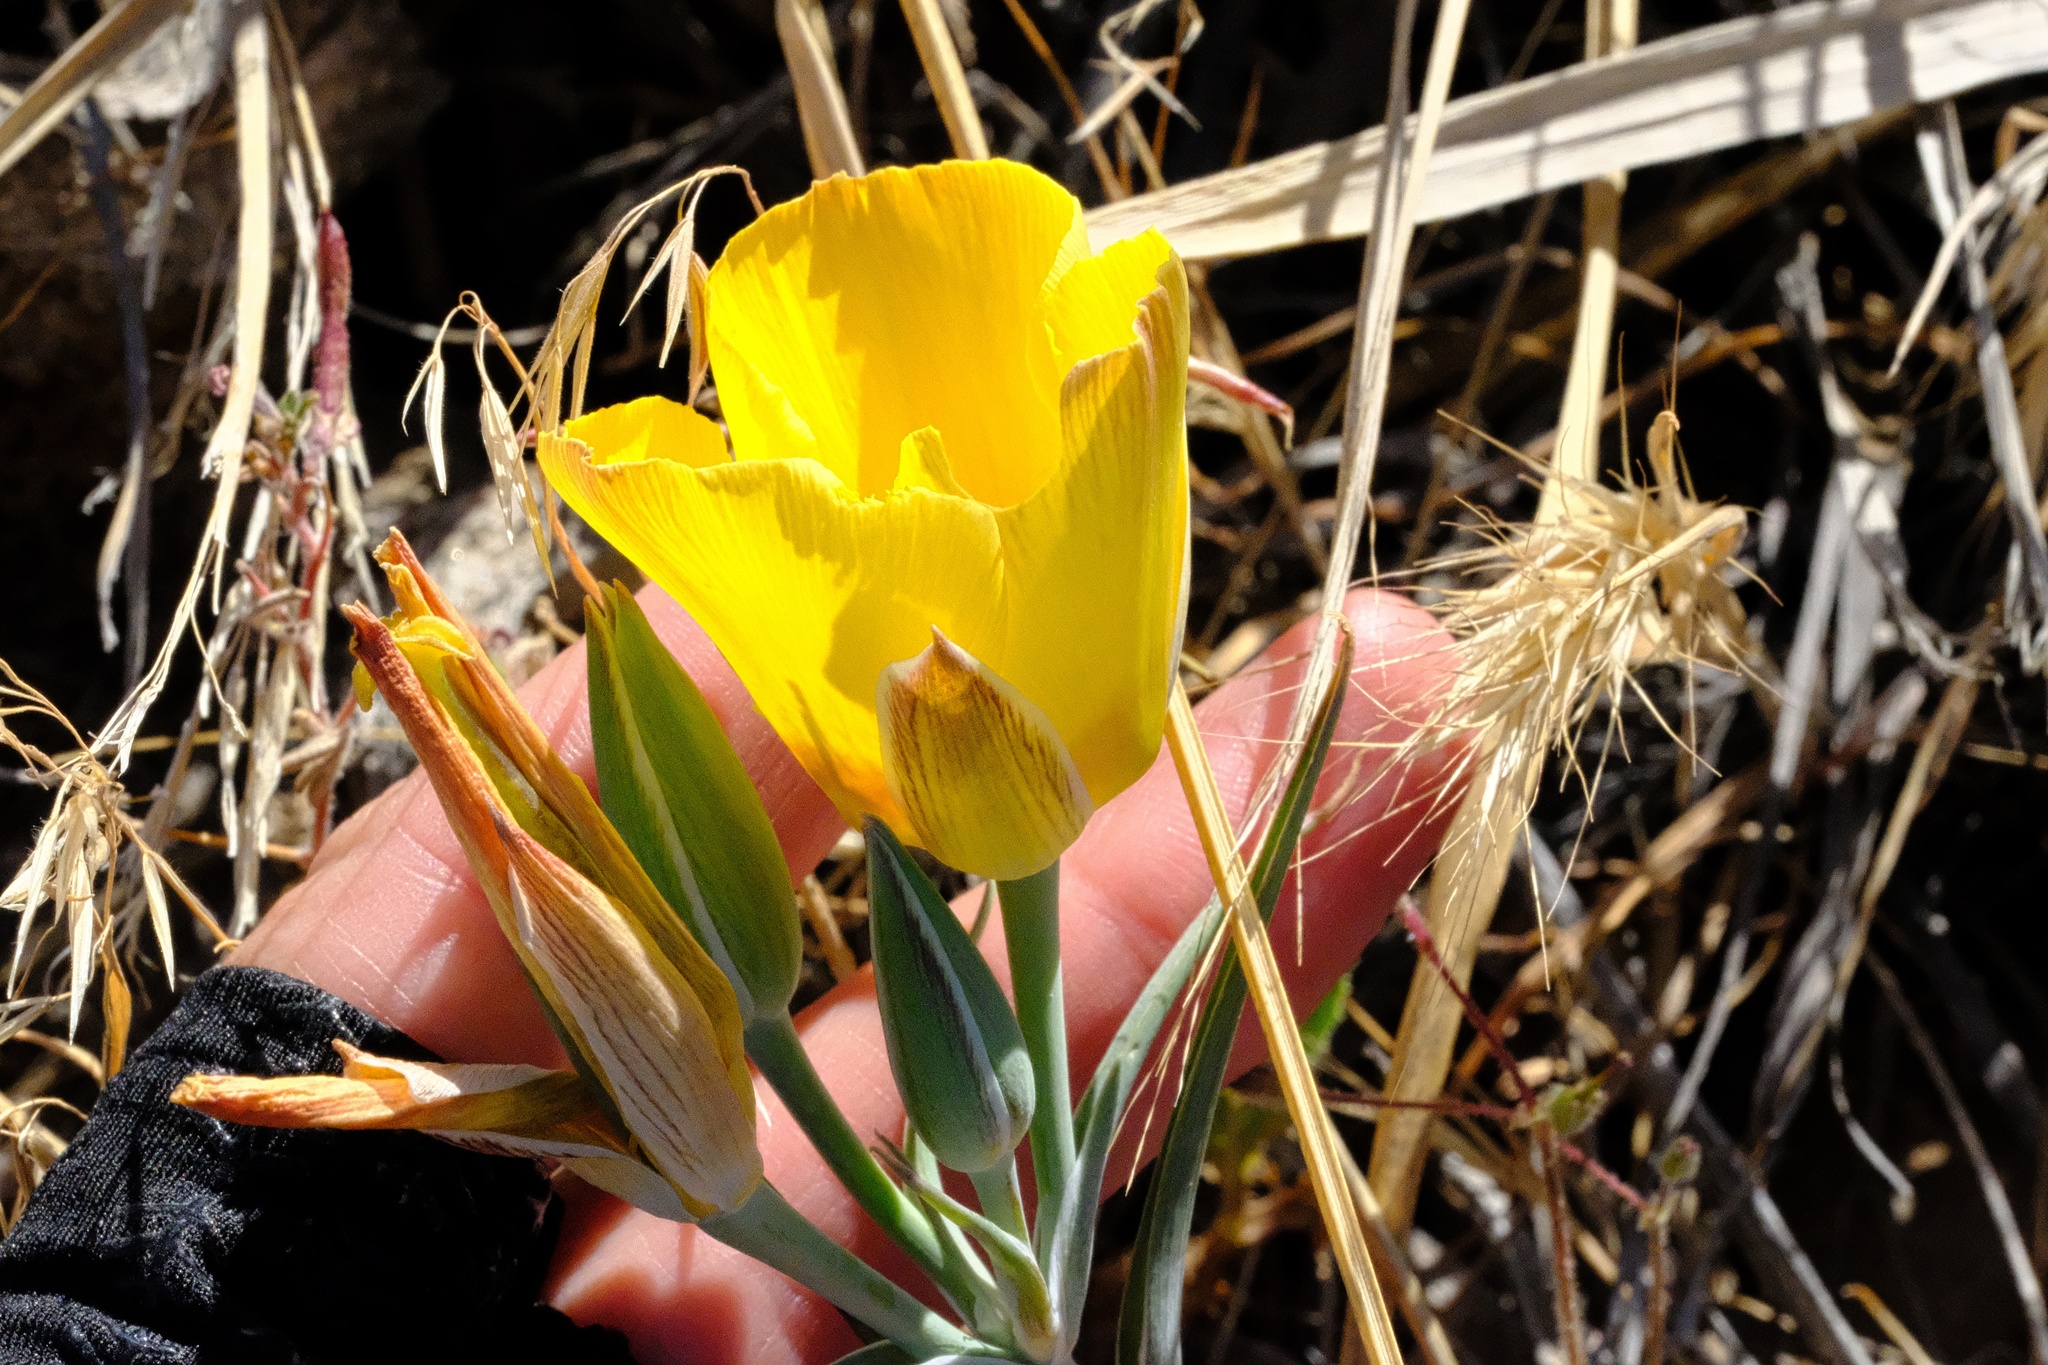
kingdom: Plantae
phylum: Tracheophyta
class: Liliopsida
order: Liliales
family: Liliaceae
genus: Calochortus
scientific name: Calochortus weedii
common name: Weed's mariposa-lily
